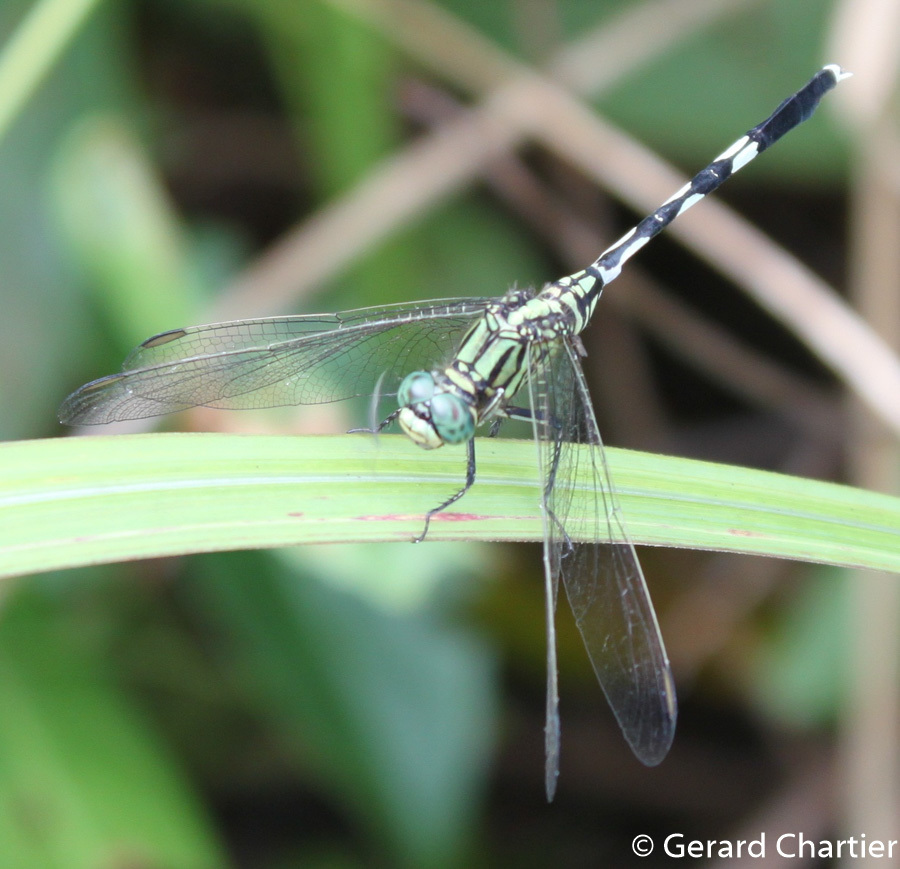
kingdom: Animalia
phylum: Arthropoda
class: Insecta
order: Odonata
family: Libellulidae
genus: Orthetrum
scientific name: Orthetrum sabina
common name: Slender skimmer
